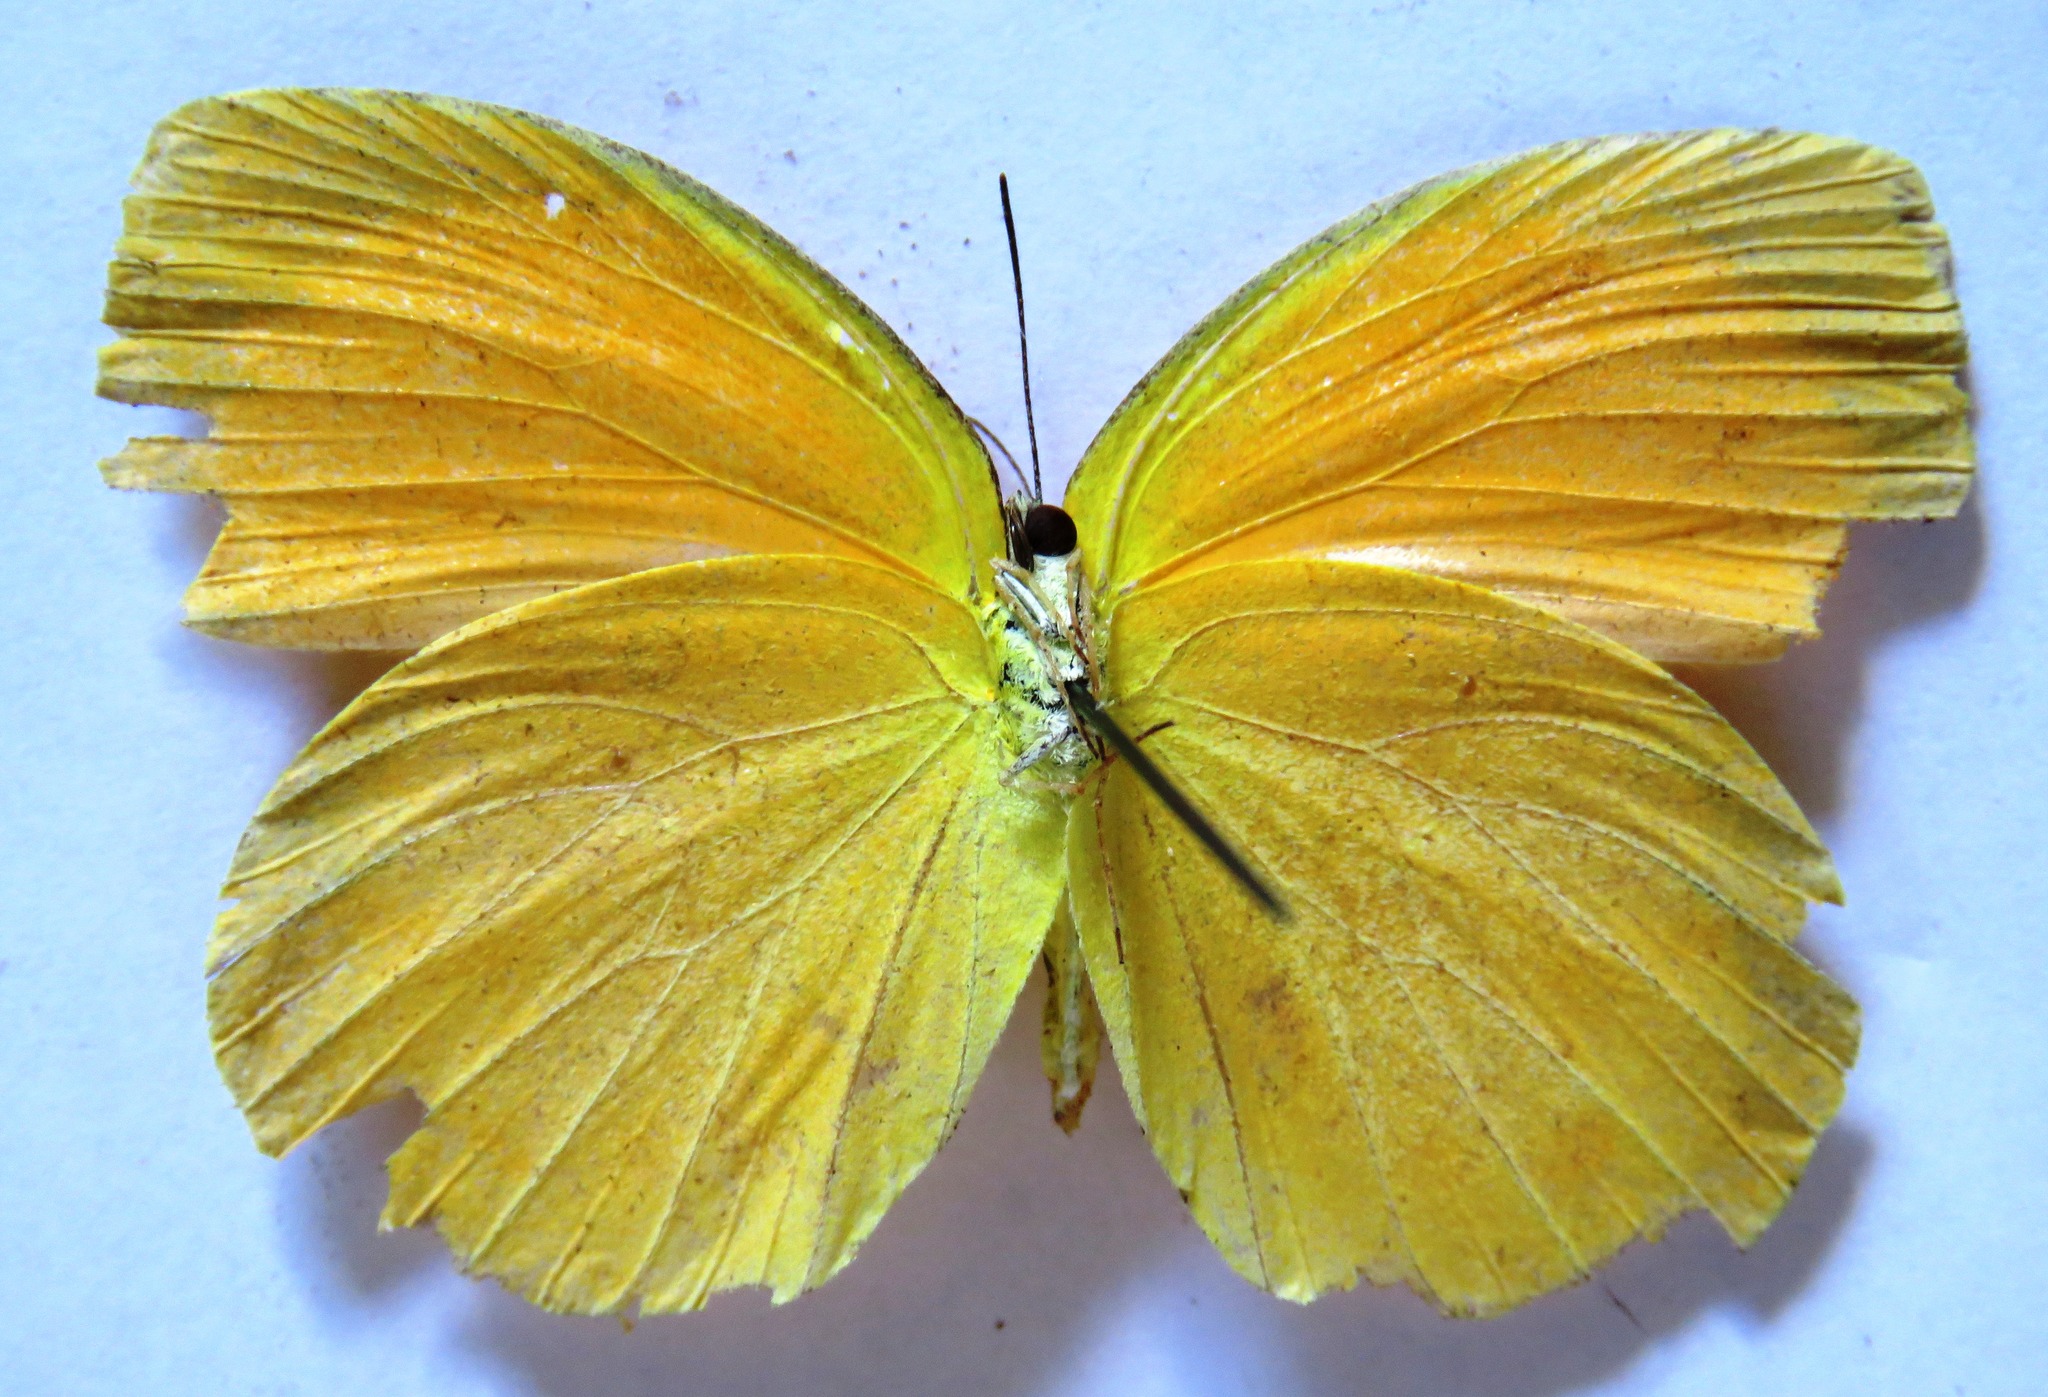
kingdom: Animalia
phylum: Arthropoda
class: Insecta
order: Lepidoptera
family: Pieridae
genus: Pyrisitia
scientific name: Pyrisitia proterpia
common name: Tailed orange
